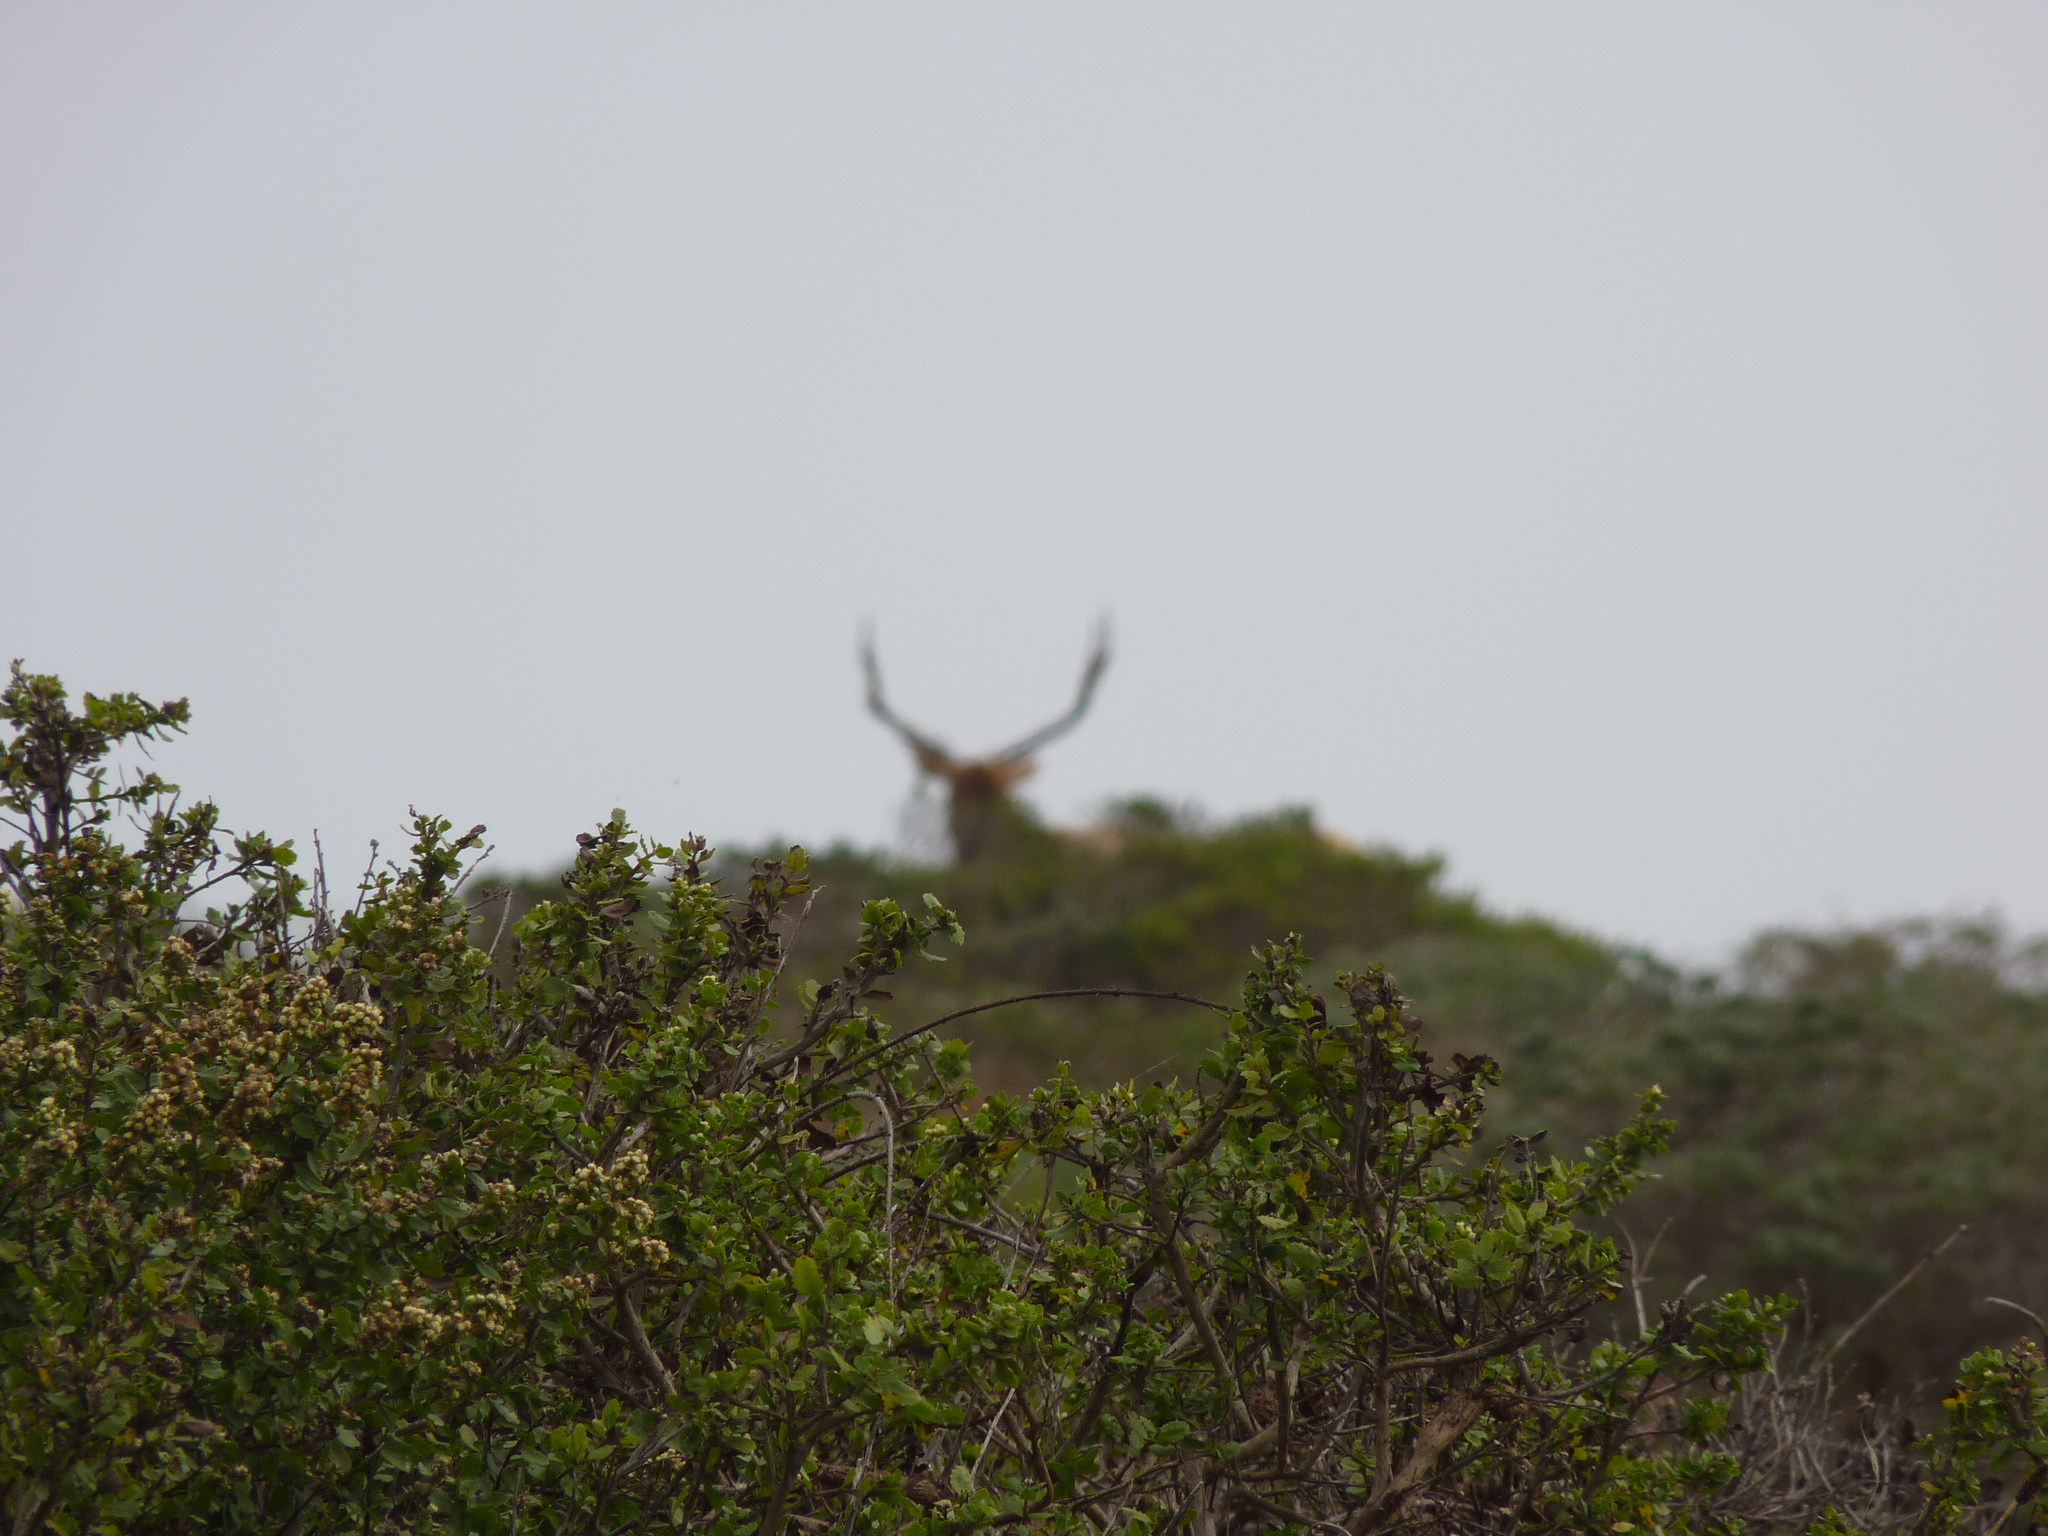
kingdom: Plantae
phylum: Tracheophyta
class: Magnoliopsida
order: Asterales
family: Asteraceae
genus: Baccharis
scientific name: Baccharis pilularis
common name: Coyotebrush
